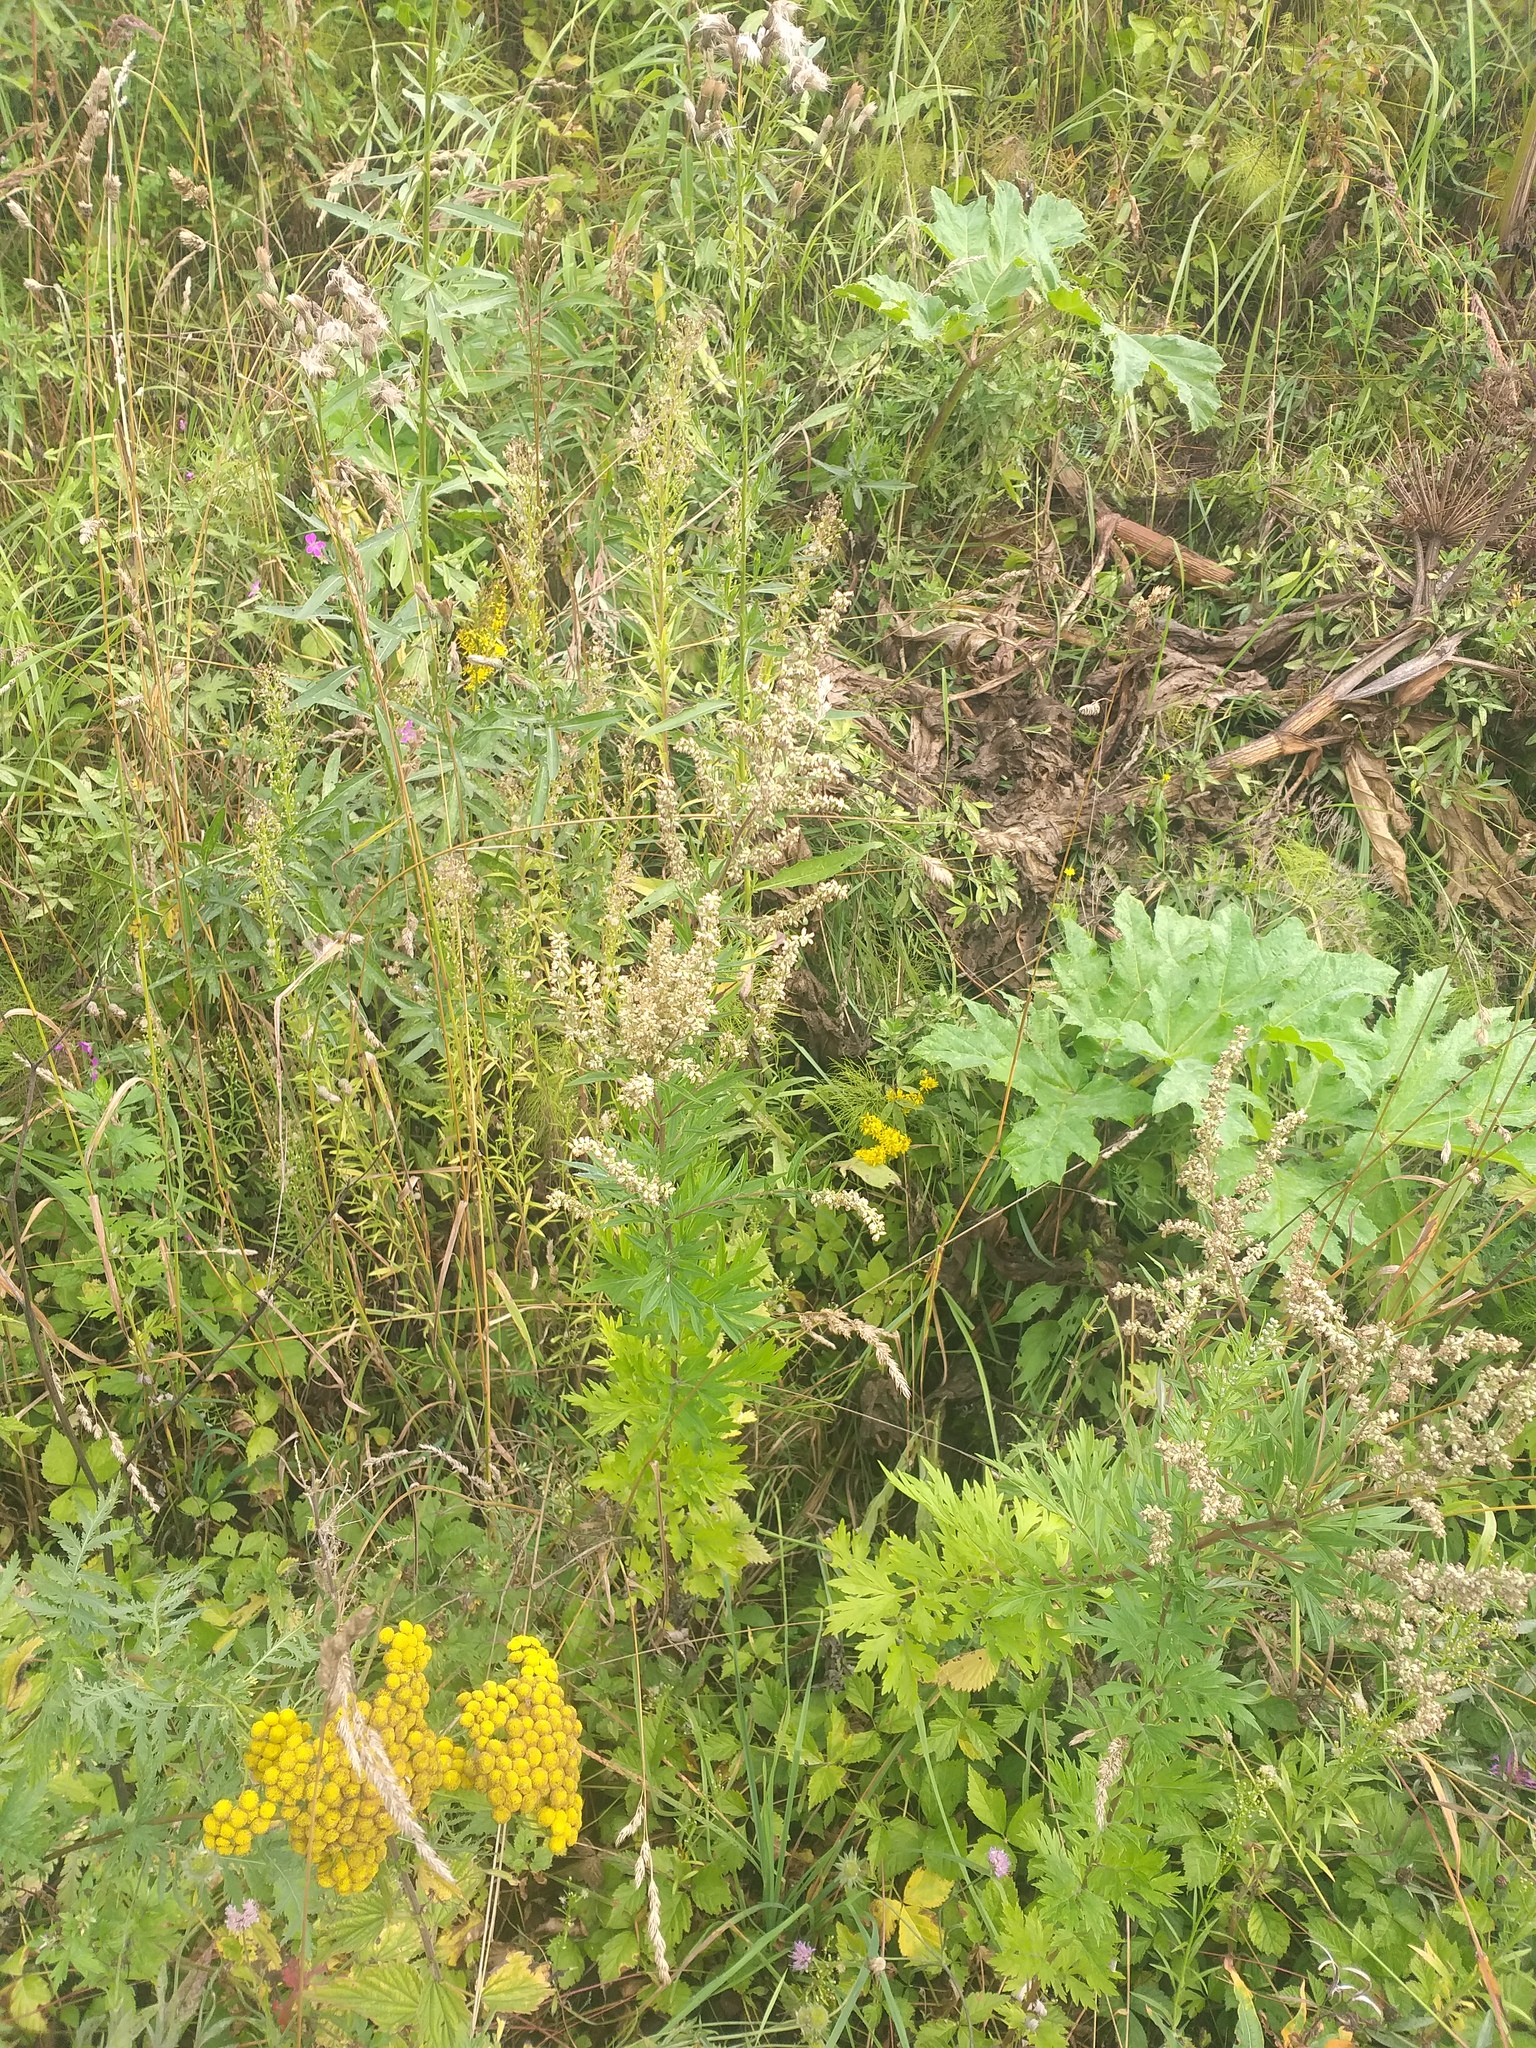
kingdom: Plantae
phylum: Tracheophyta
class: Magnoliopsida
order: Asterales
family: Asteraceae
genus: Artemisia
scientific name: Artemisia vulgaris
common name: Mugwort
